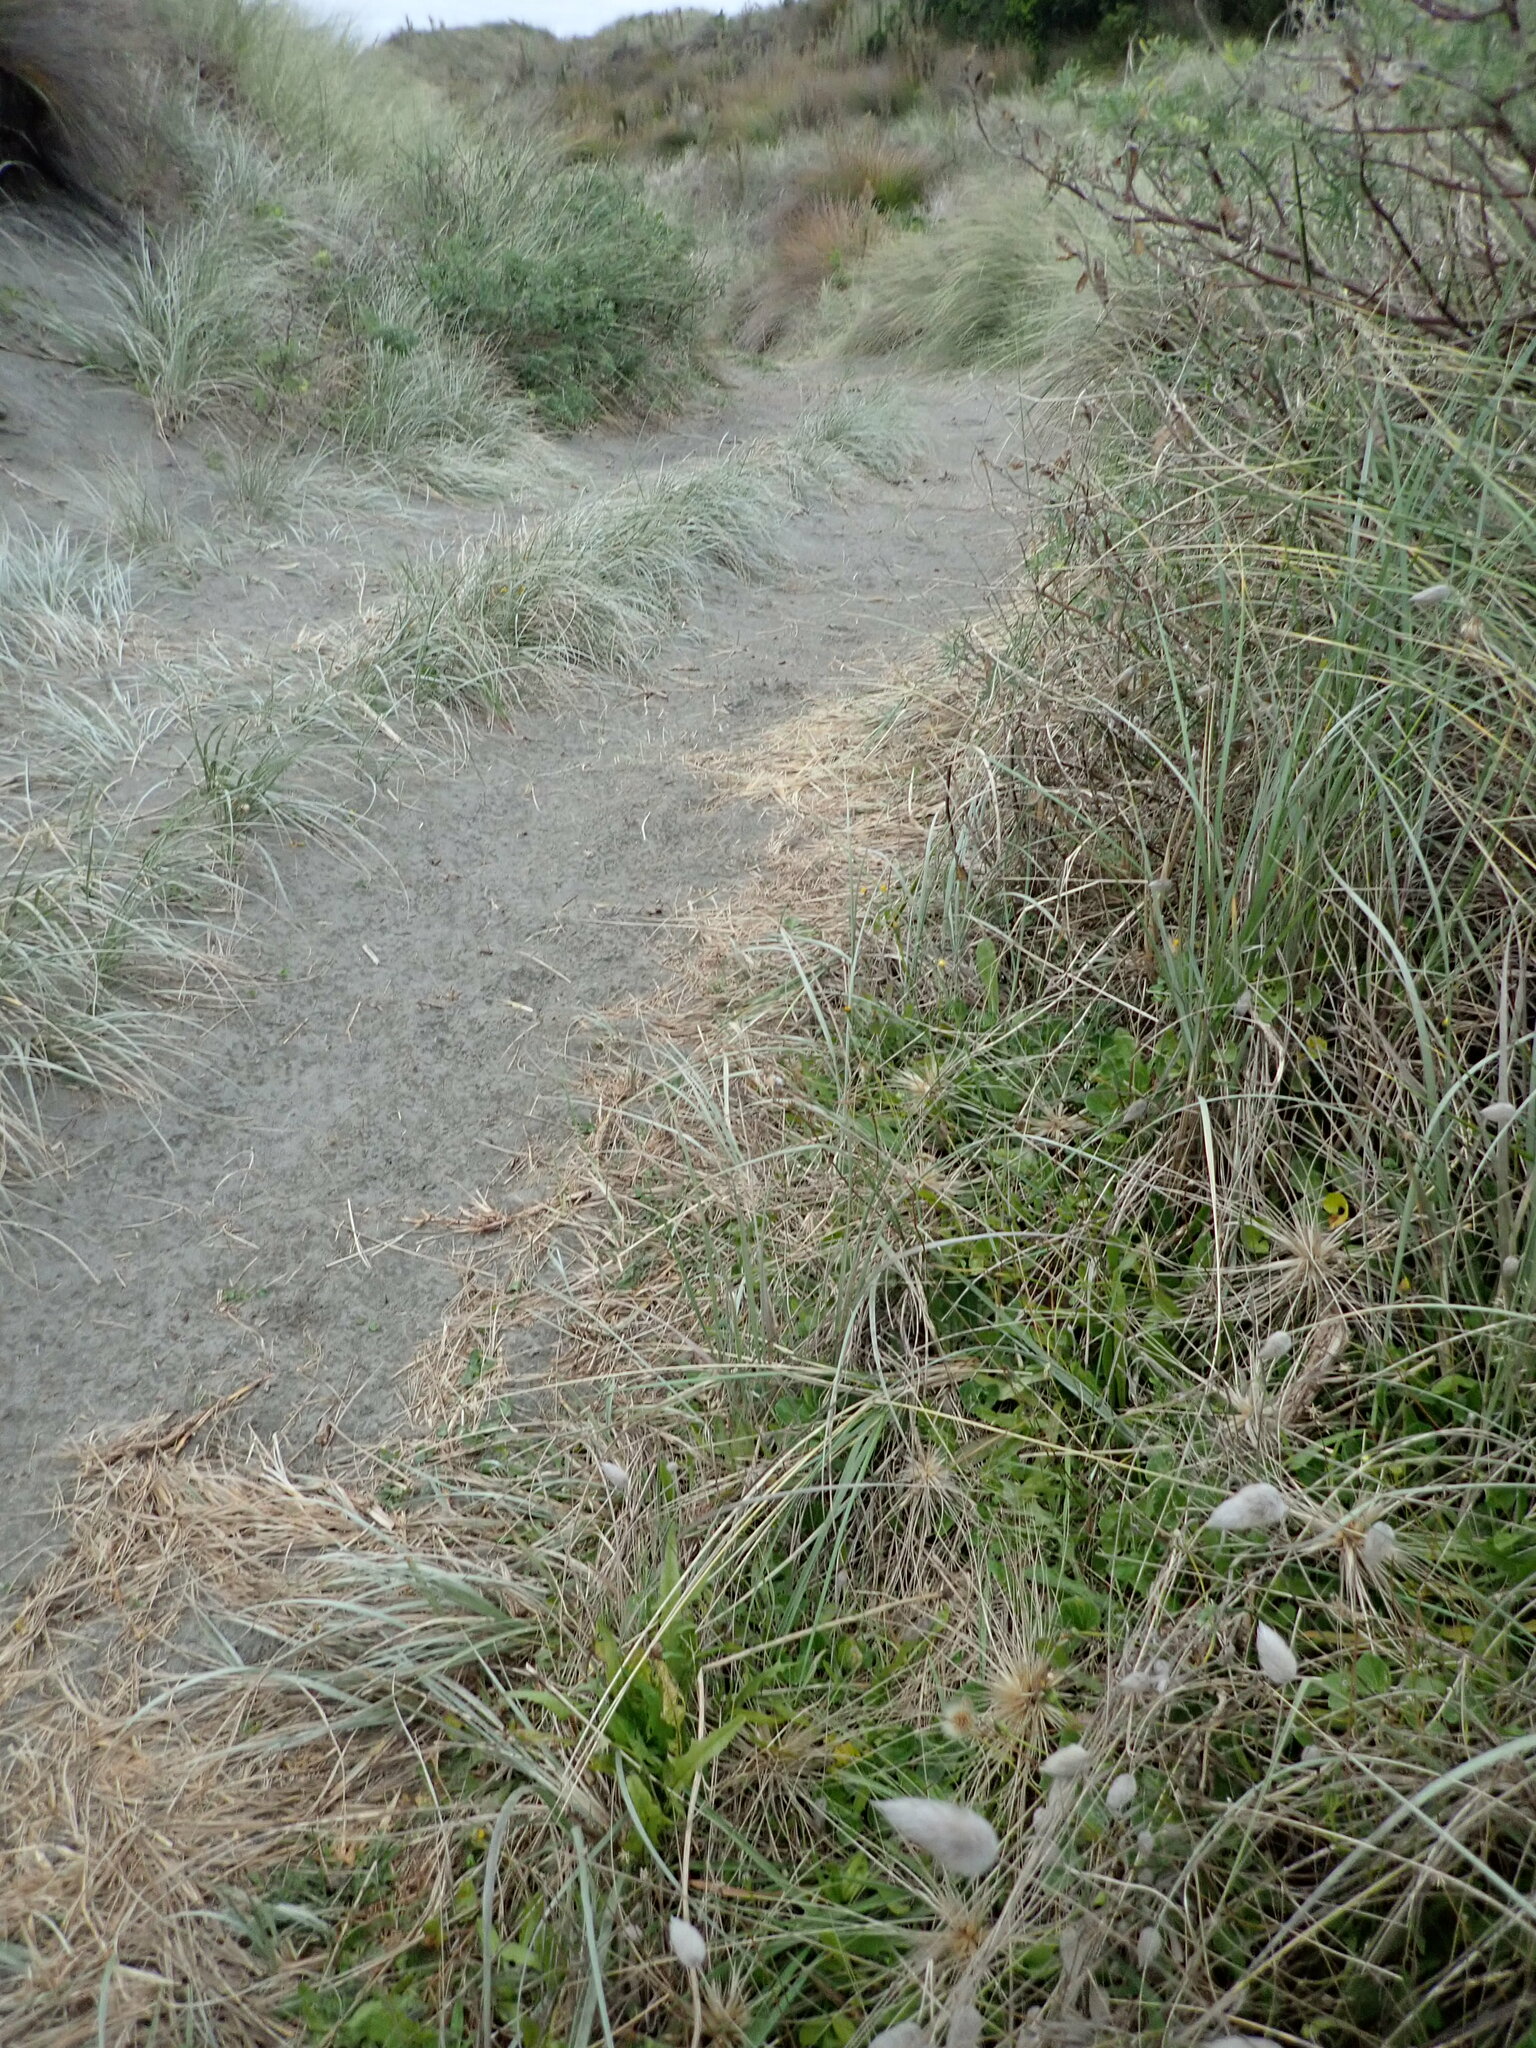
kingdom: Plantae
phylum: Tracheophyta
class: Magnoliopsida
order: Solanales
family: Convolvulaceae
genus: Calystegia
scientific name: Calystegia soldanella
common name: Sea bindweed
